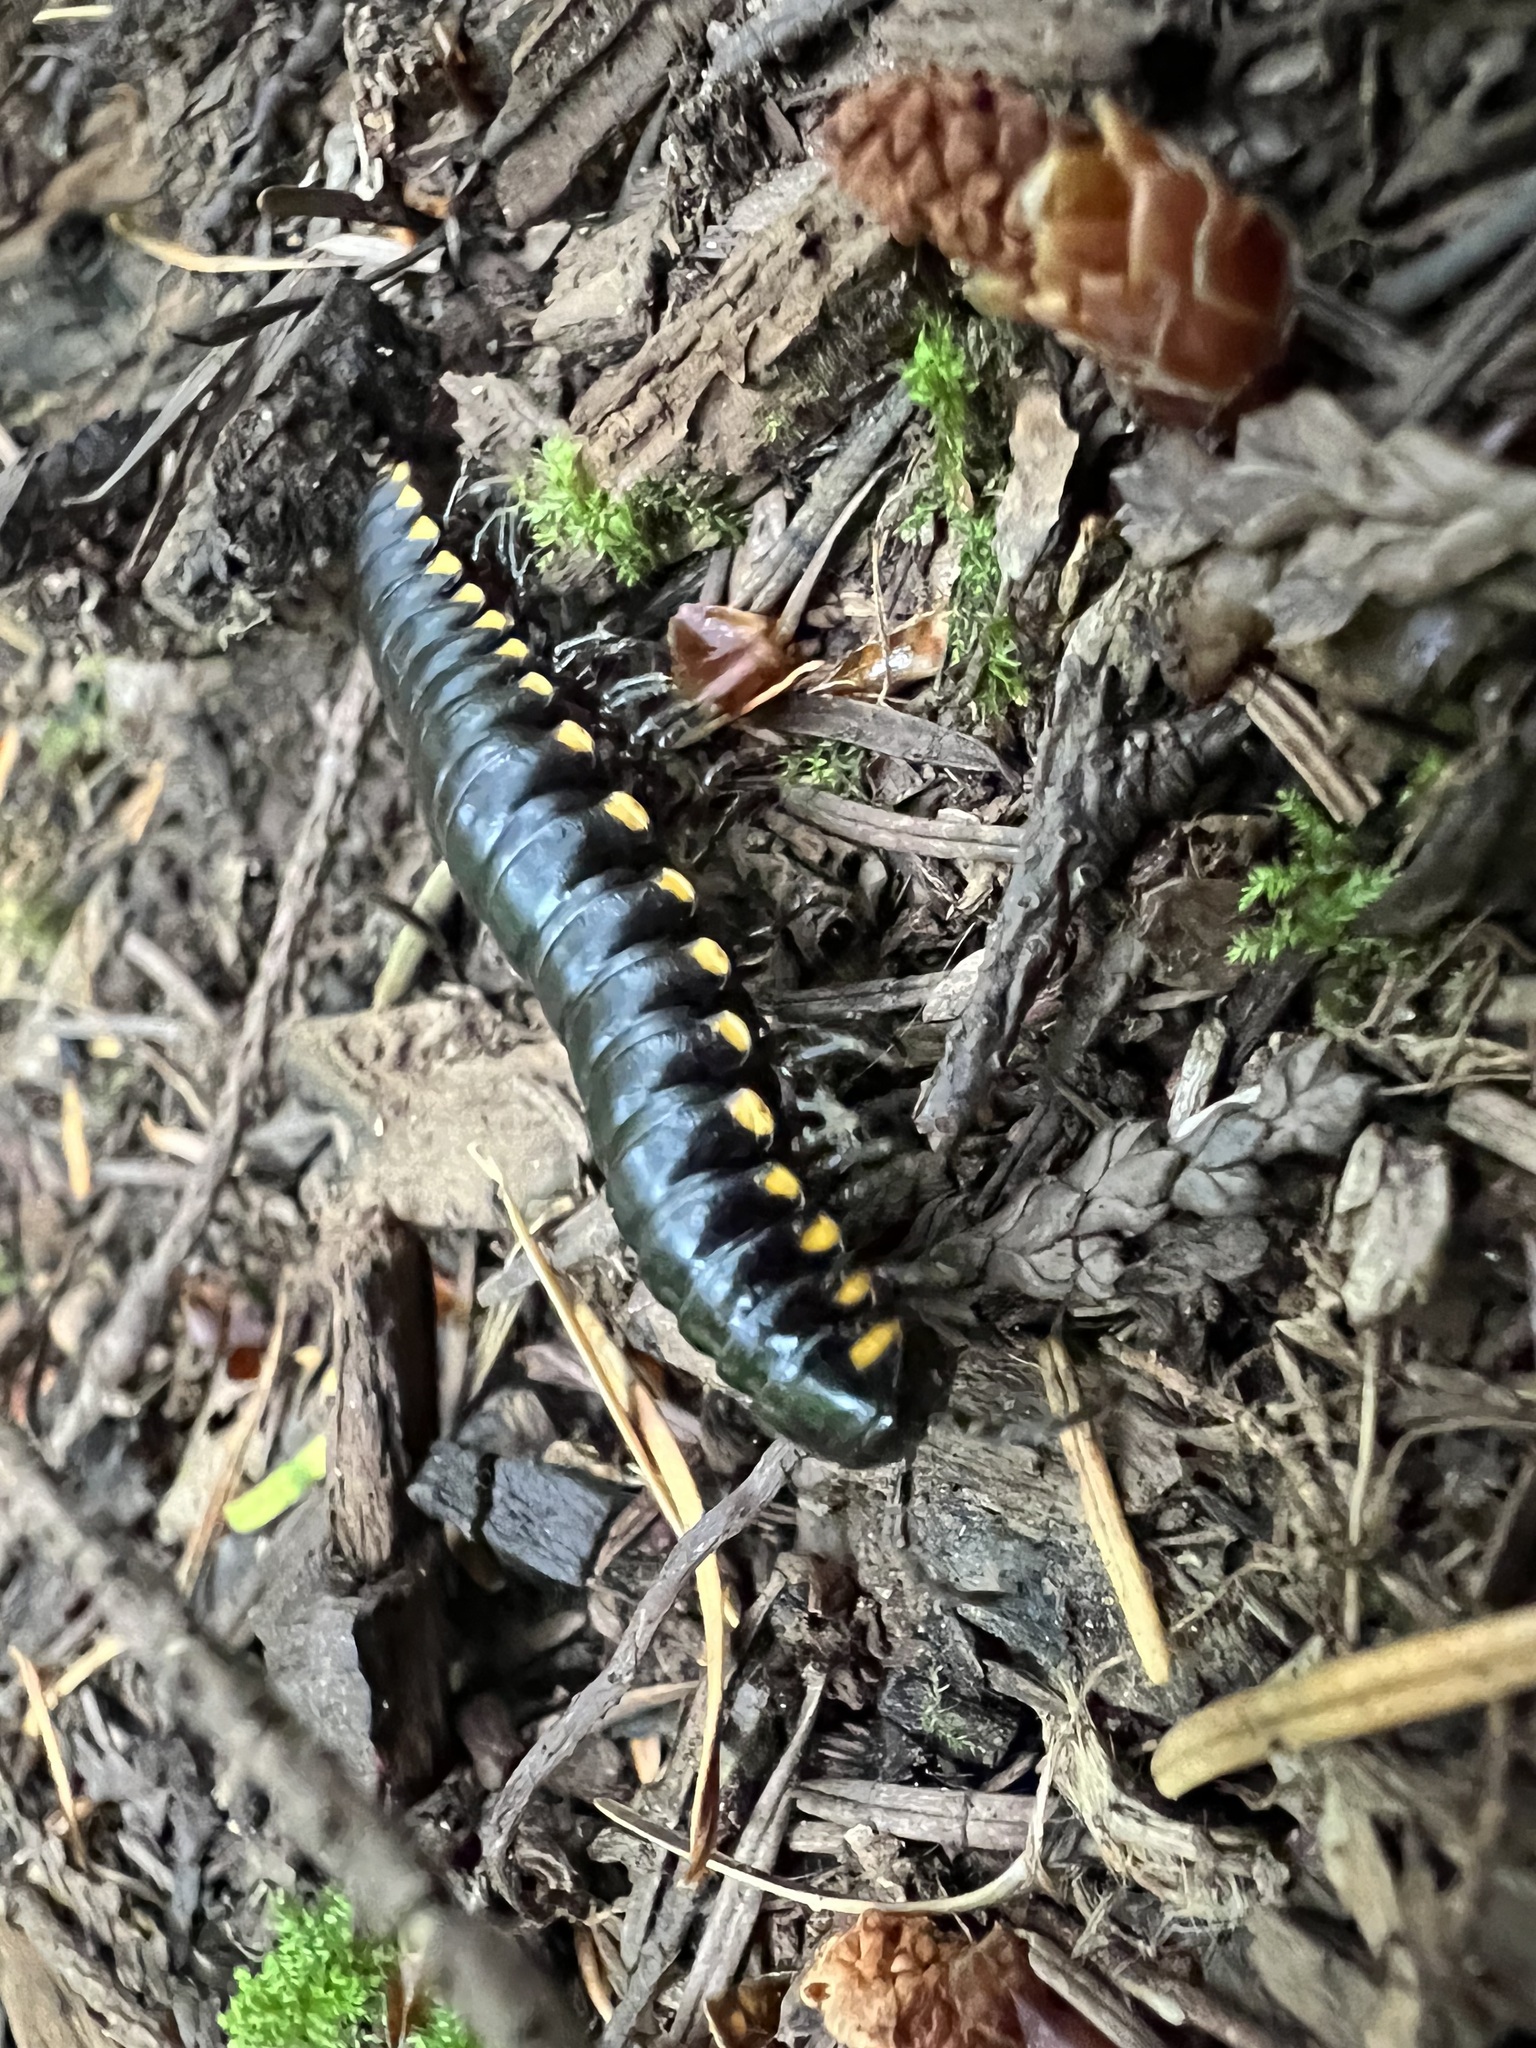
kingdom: Animalia
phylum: Arthropoda
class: Diplopoda
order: Polydesmida
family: Xystodesmidae
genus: Harpaphe
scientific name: Harpaphe haydeniana
